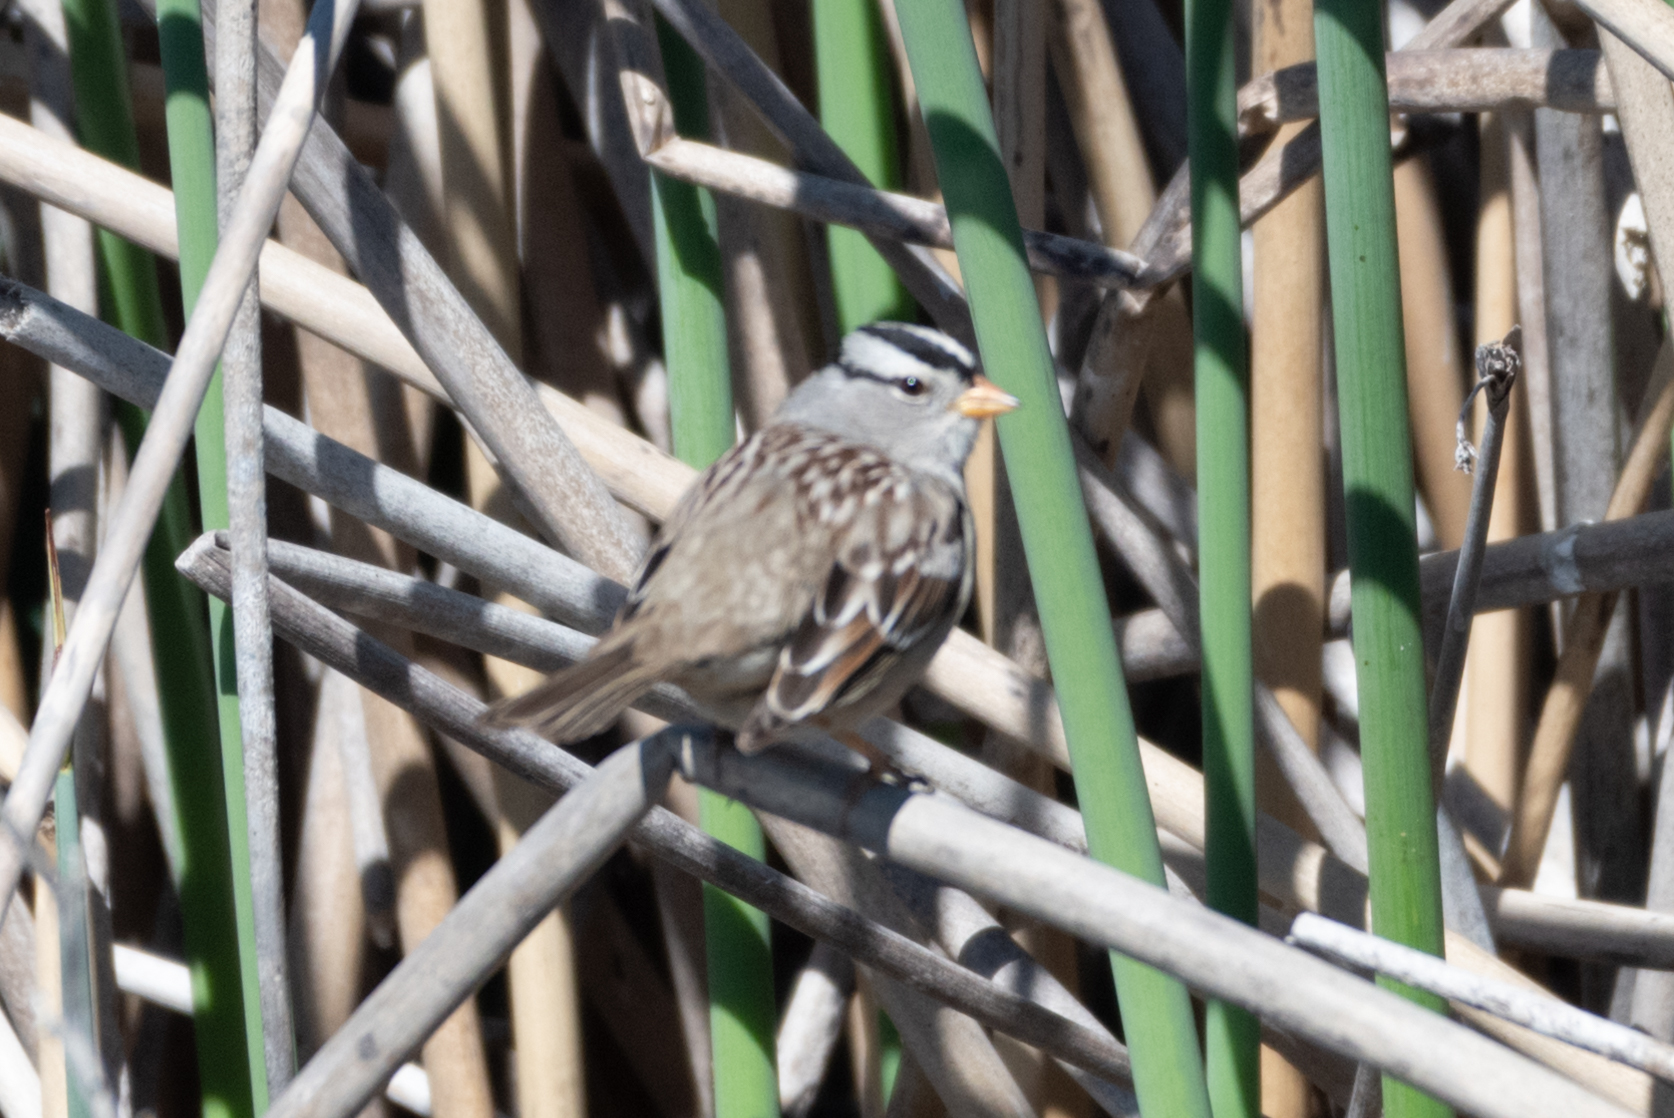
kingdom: Animalia
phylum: Chordata
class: Aves
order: Passeriformes
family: Passerellidae
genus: Zonotrichia
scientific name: Zonotrichia leucophrys
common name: White-crowned sparrow
